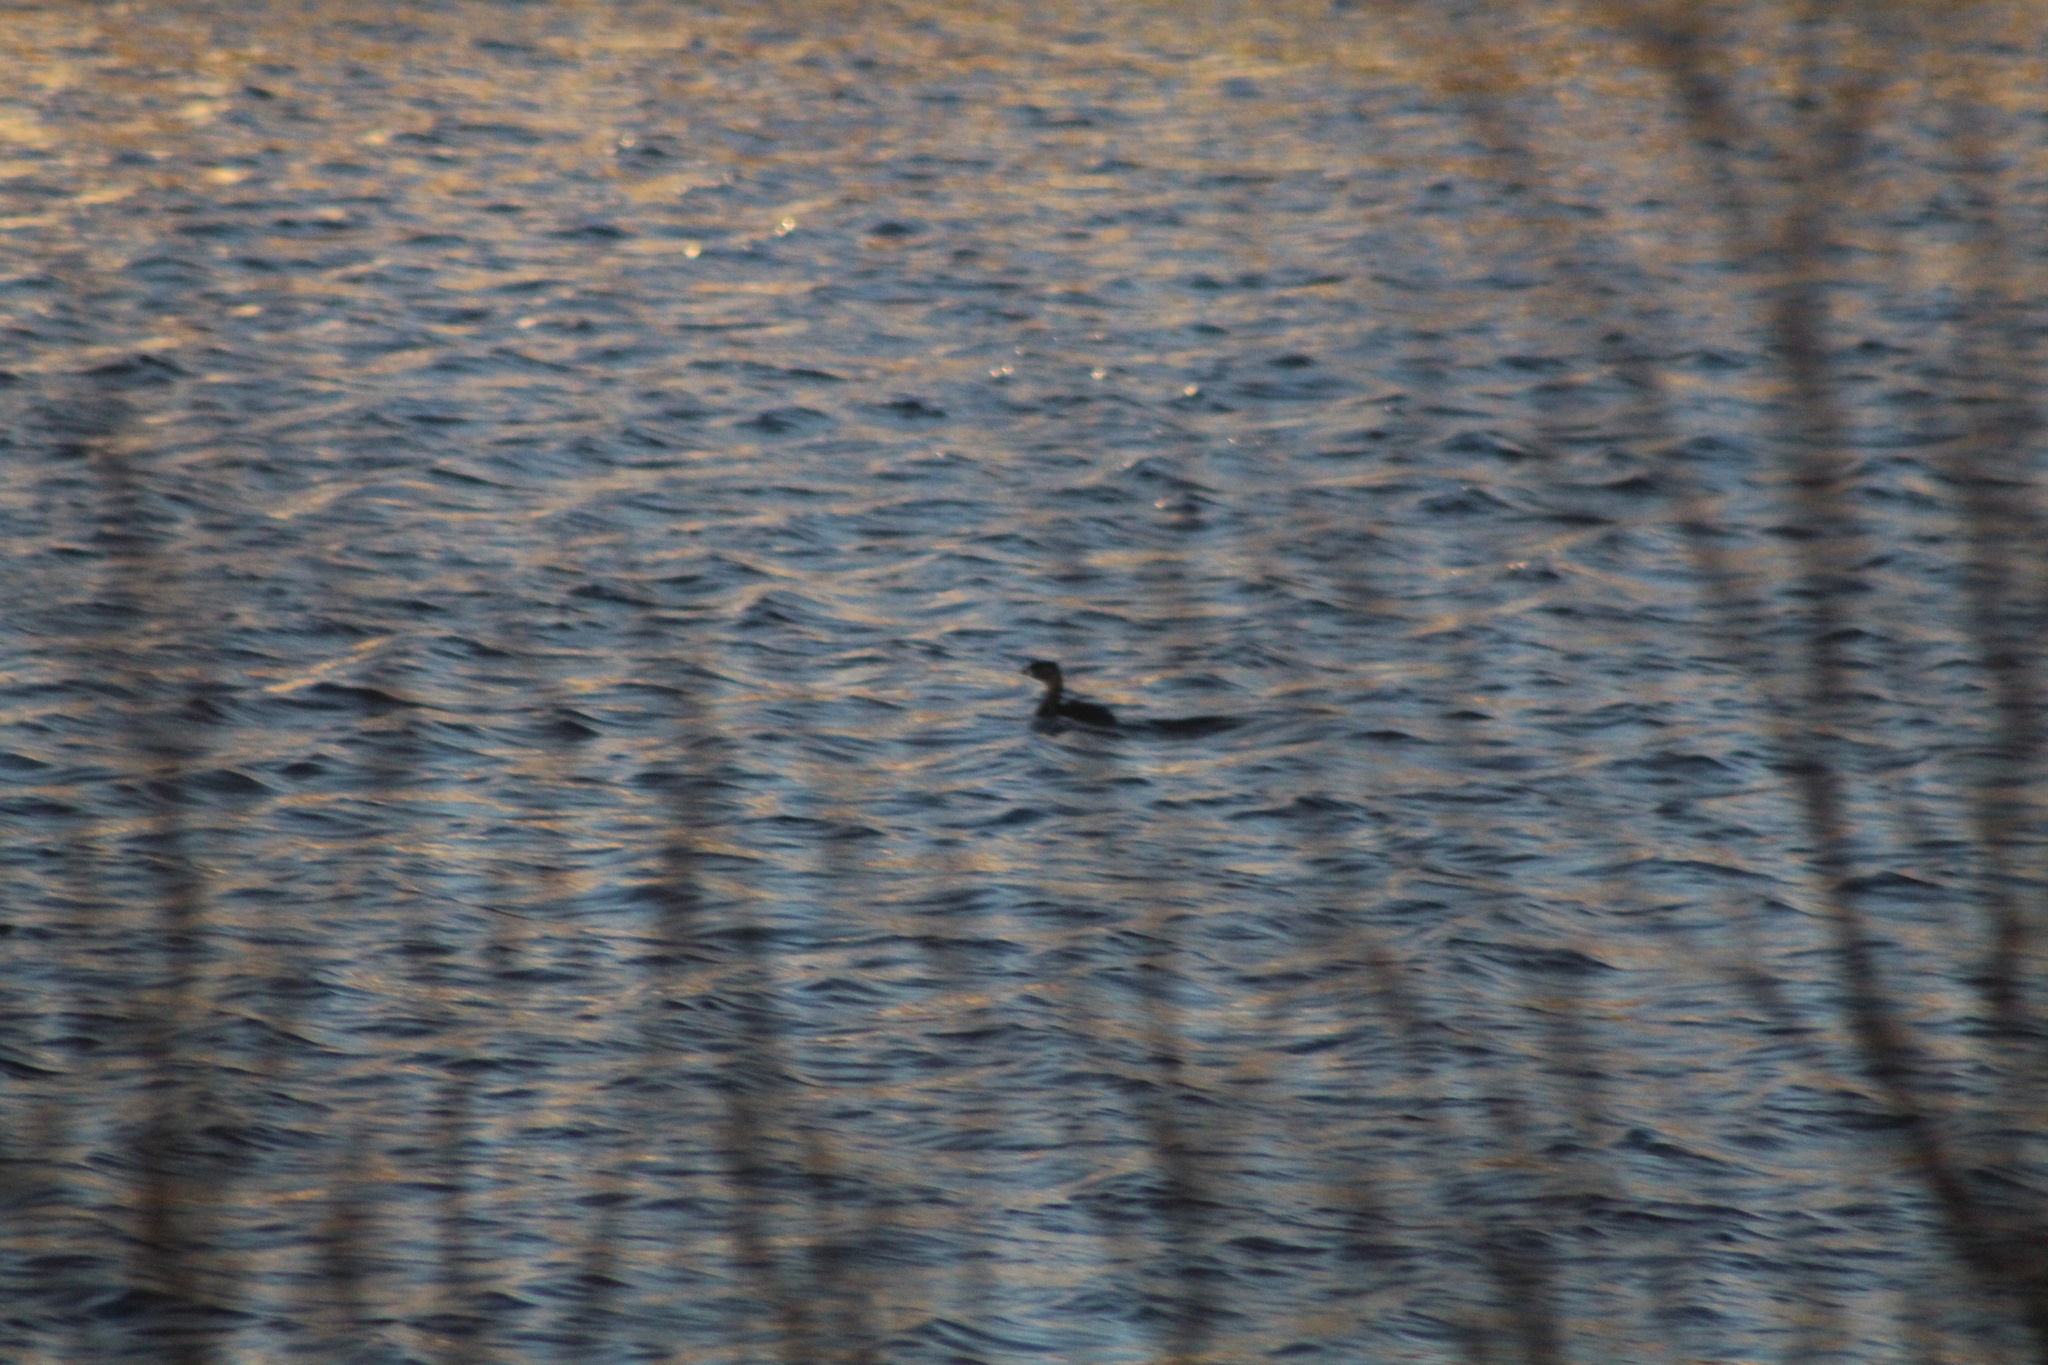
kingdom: Animalia
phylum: Chordata
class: Aves
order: Podicipediformes
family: Podicipedidae
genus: Podilymbus
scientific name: Podilymbus podiceps
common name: Pied-billed grebe
